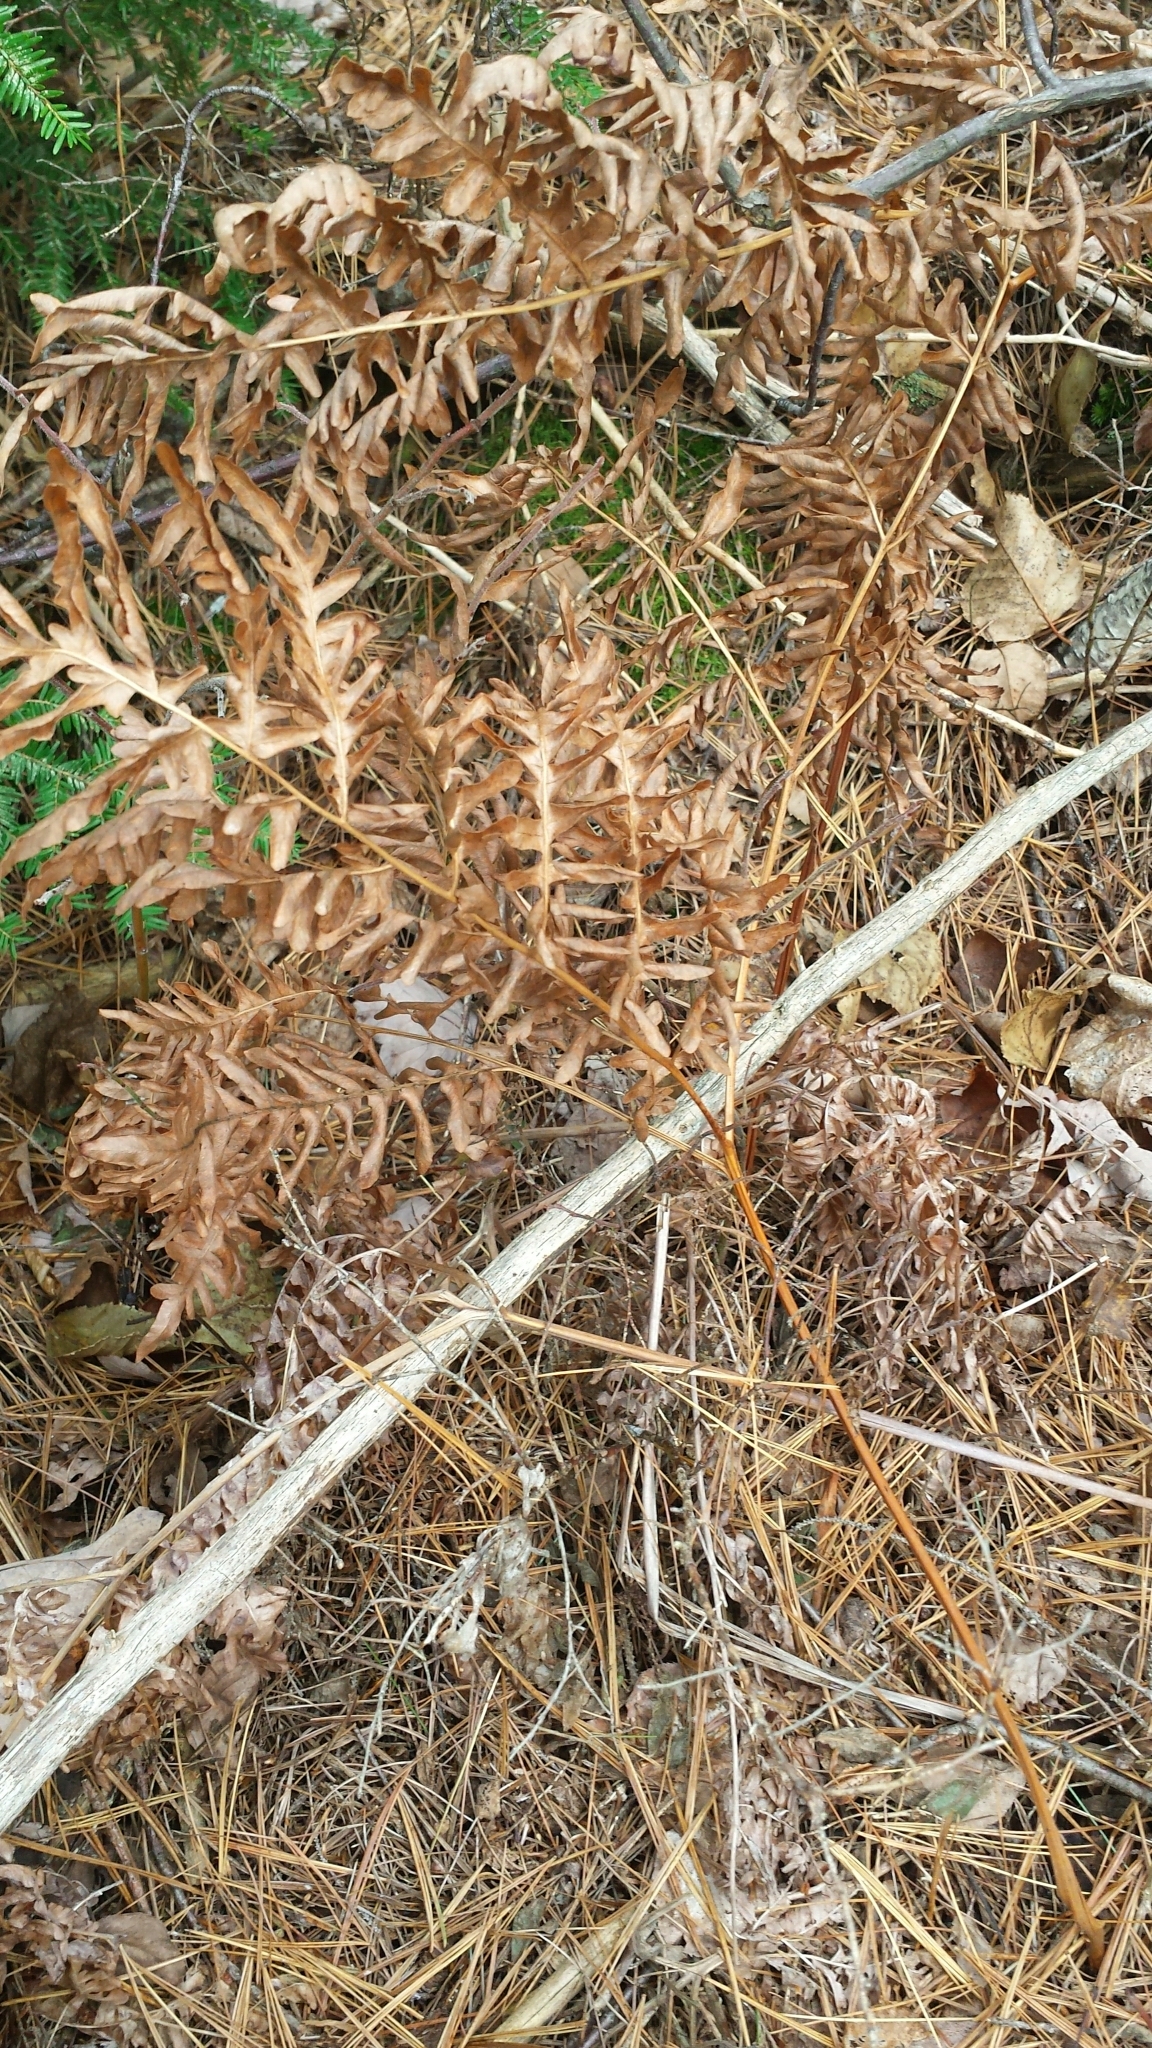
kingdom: Plantae
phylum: Tracheophyta
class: Polypodiopsida
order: Polypodiales
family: Dennstaedtiaceae
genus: Pteridium
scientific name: Pteridium aquilinum
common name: Bracken
